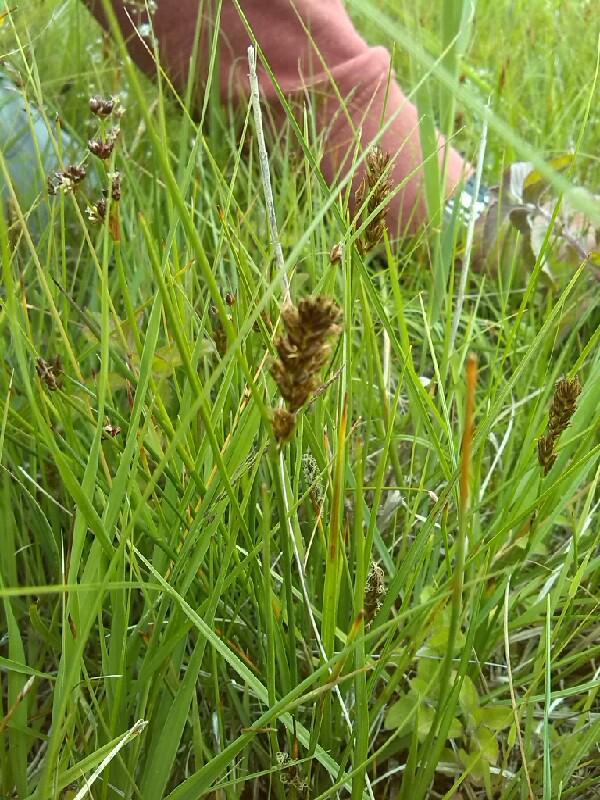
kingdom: Plantae
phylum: Tracheophyta
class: Liliopsida
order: Poales
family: Cyperaceae
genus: Blysmus
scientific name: Blysmus compressus
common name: Flat-sedge
